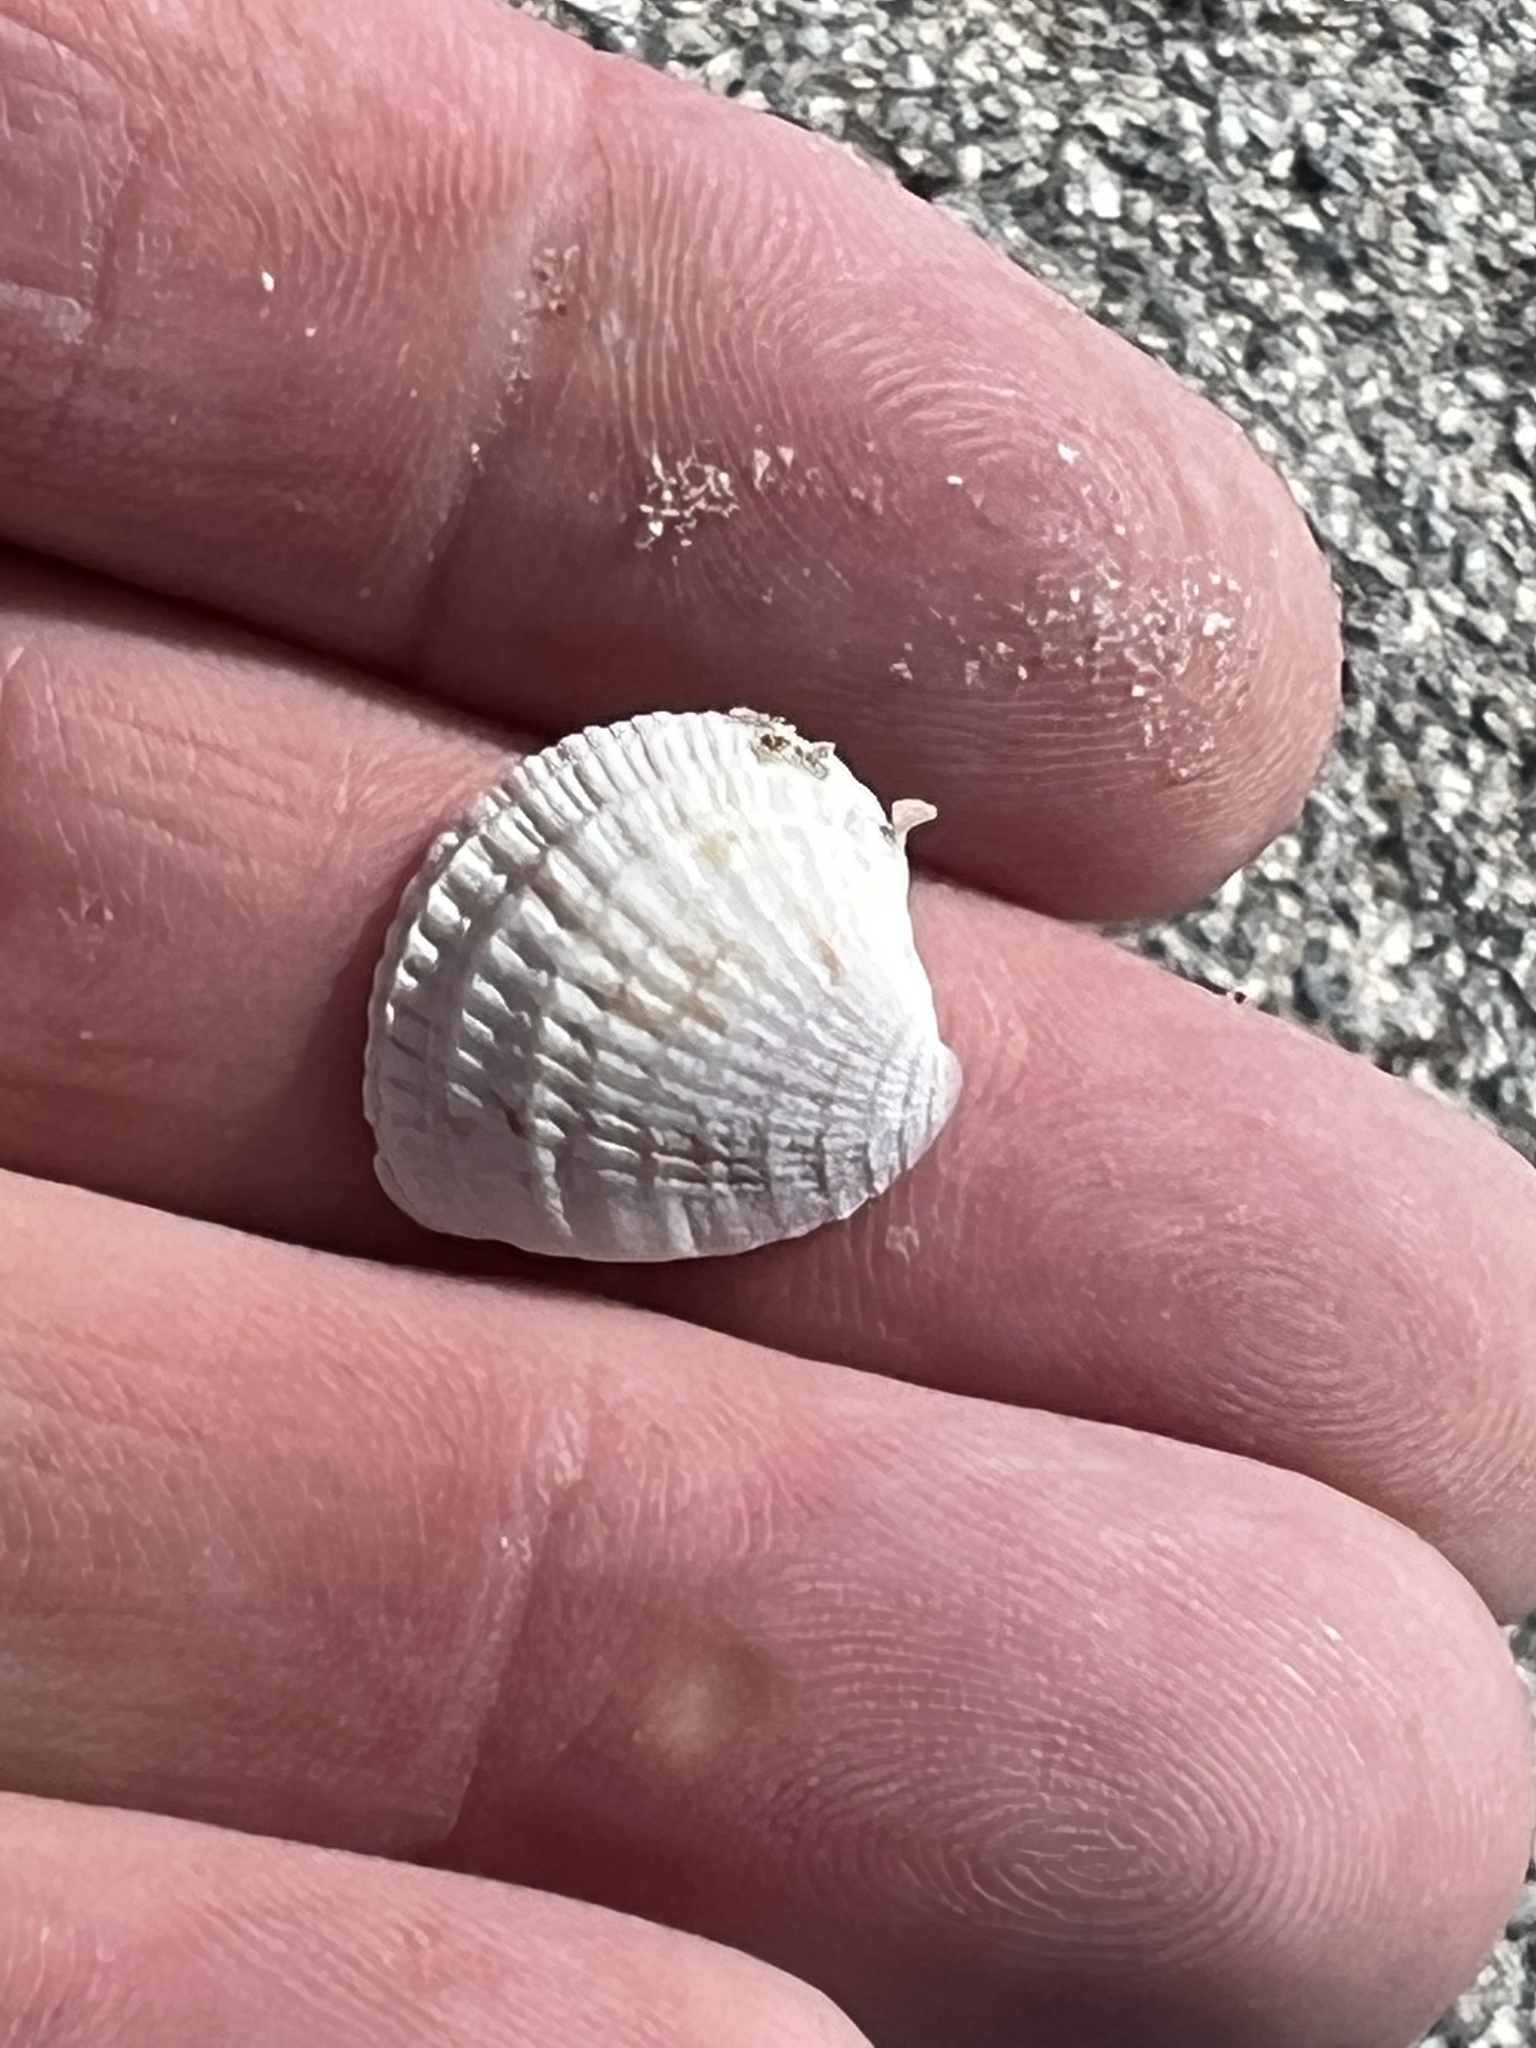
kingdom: Animalia
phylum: Mollusca
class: Bivalvia
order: Venerida
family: Veneridae
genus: Chione
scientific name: Chione elevata
